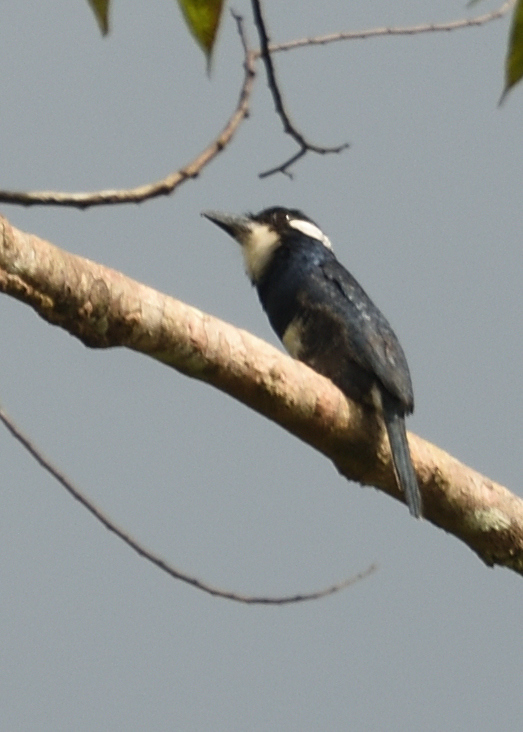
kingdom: Animalia
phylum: Chordata
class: Aves
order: Piciformes
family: Bucconidae
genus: Notharchus
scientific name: Notharchus pectoralis
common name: Black-breasted puffbird
